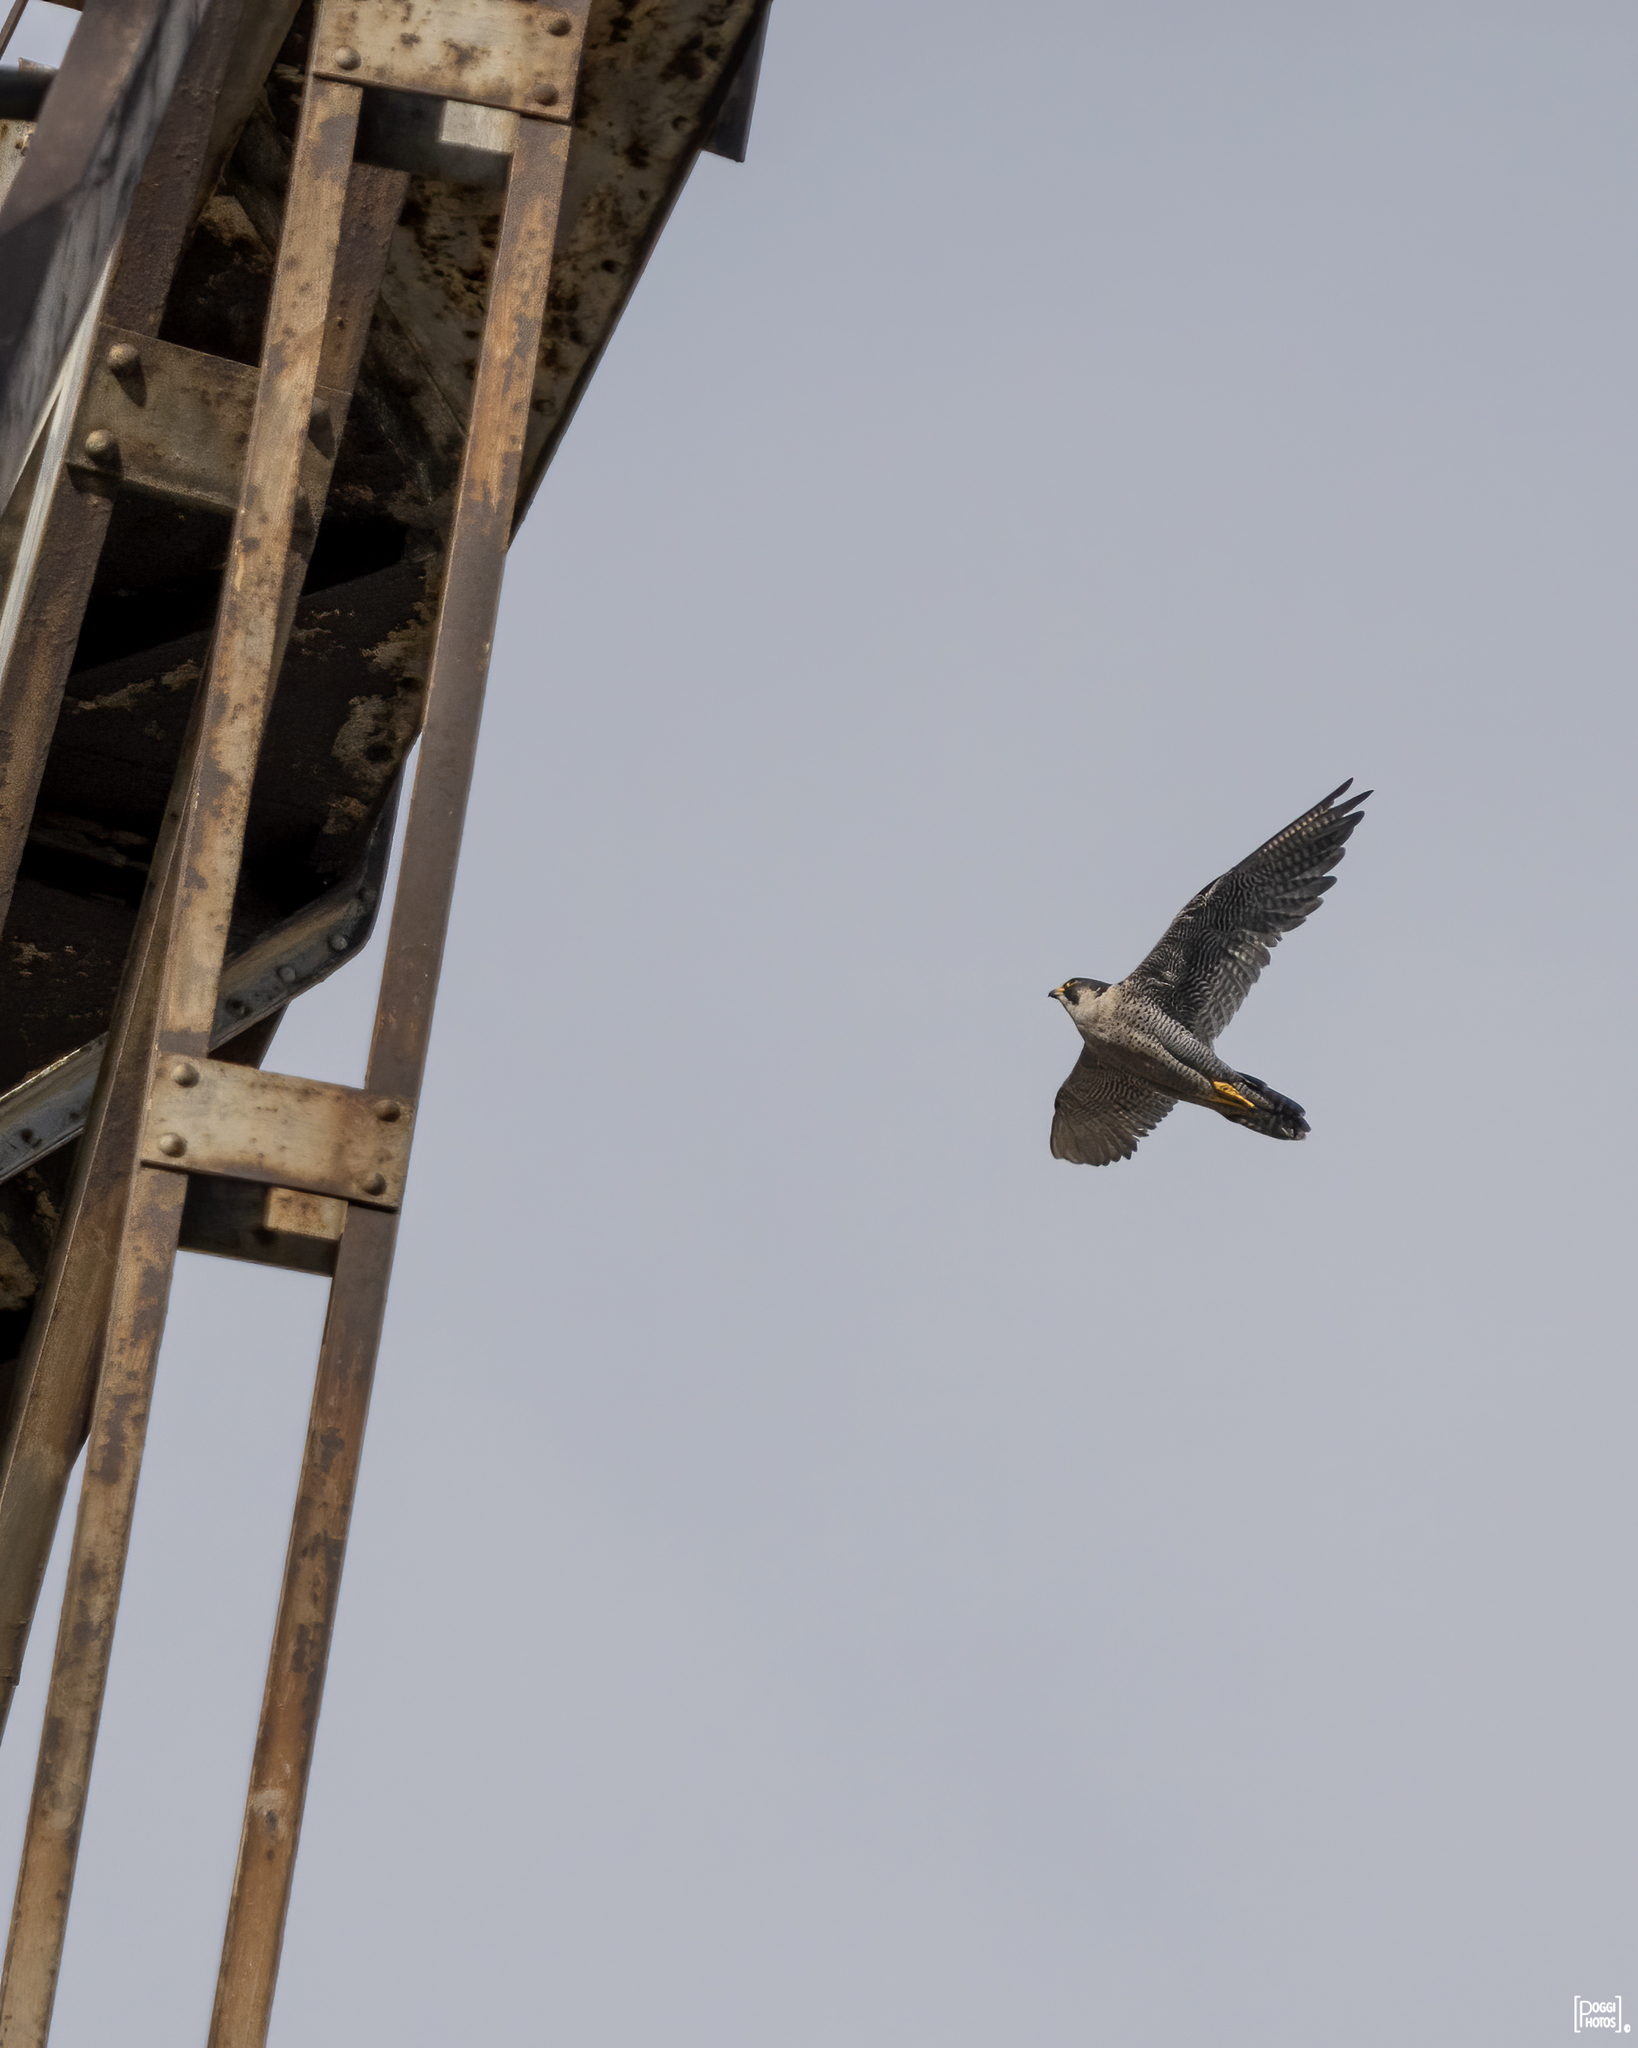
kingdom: Animalia
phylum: Chordata
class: Aves
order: Falconiformes
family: Falconidae
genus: Falco
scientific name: Falco peregrinus
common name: Peregrine falcon
